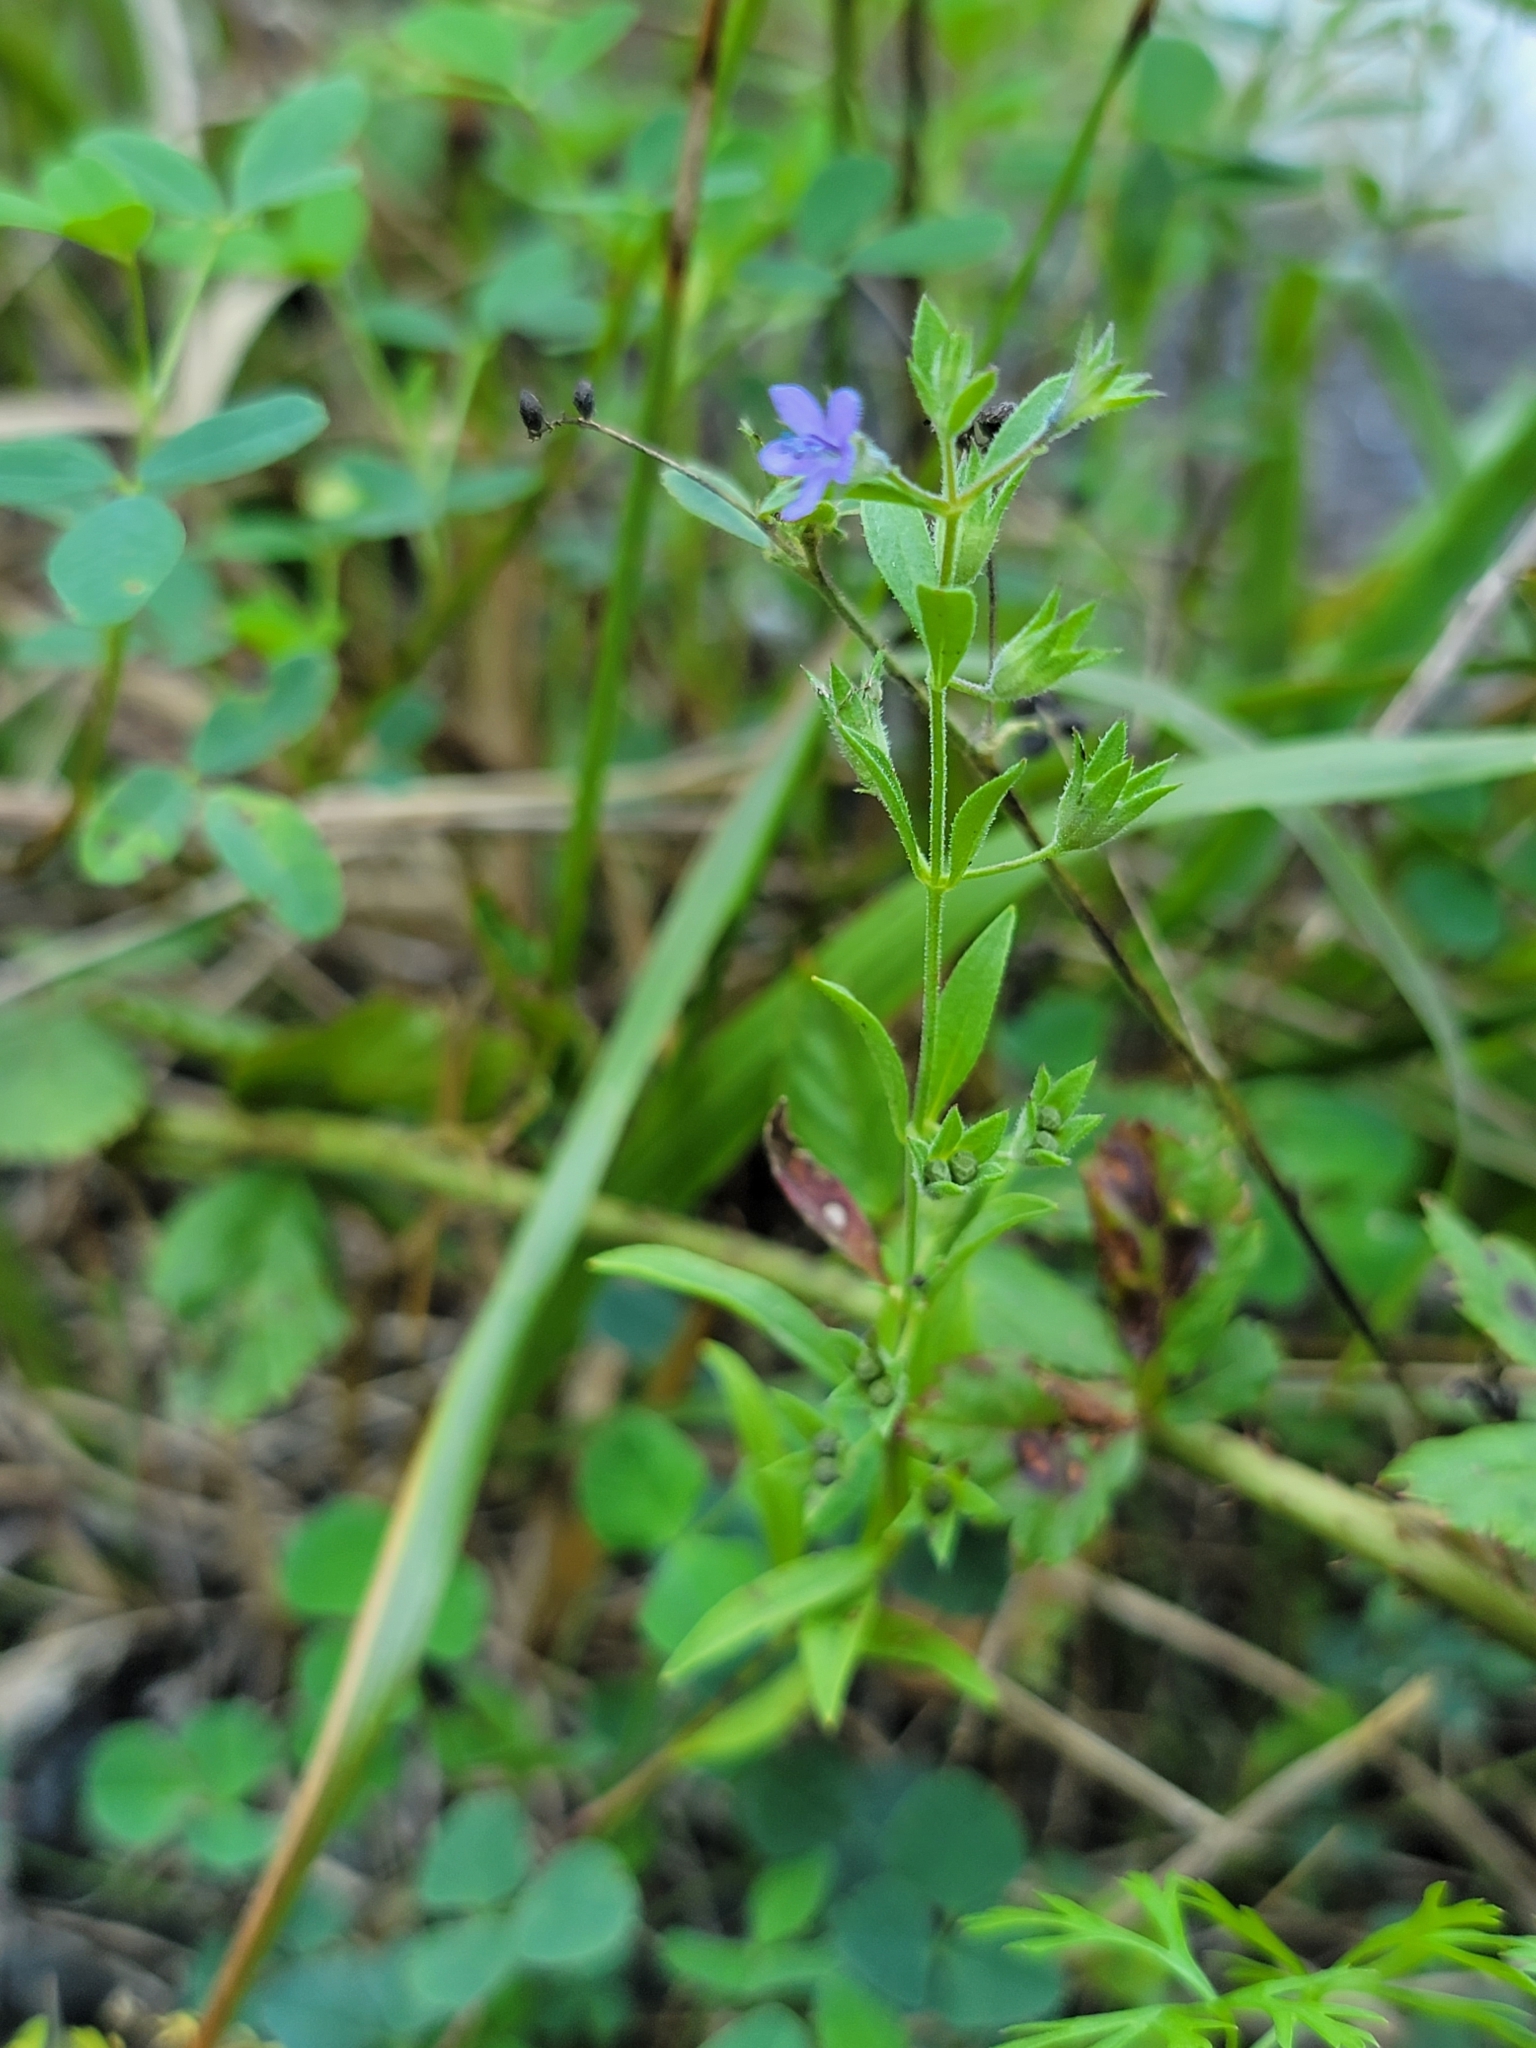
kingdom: Plantae
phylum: Tracheophyta
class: Magnoliopsida
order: Lamiales
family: Lamiaceae
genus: Trichostema
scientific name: Trichostema brachiatum
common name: False pennyroyal
